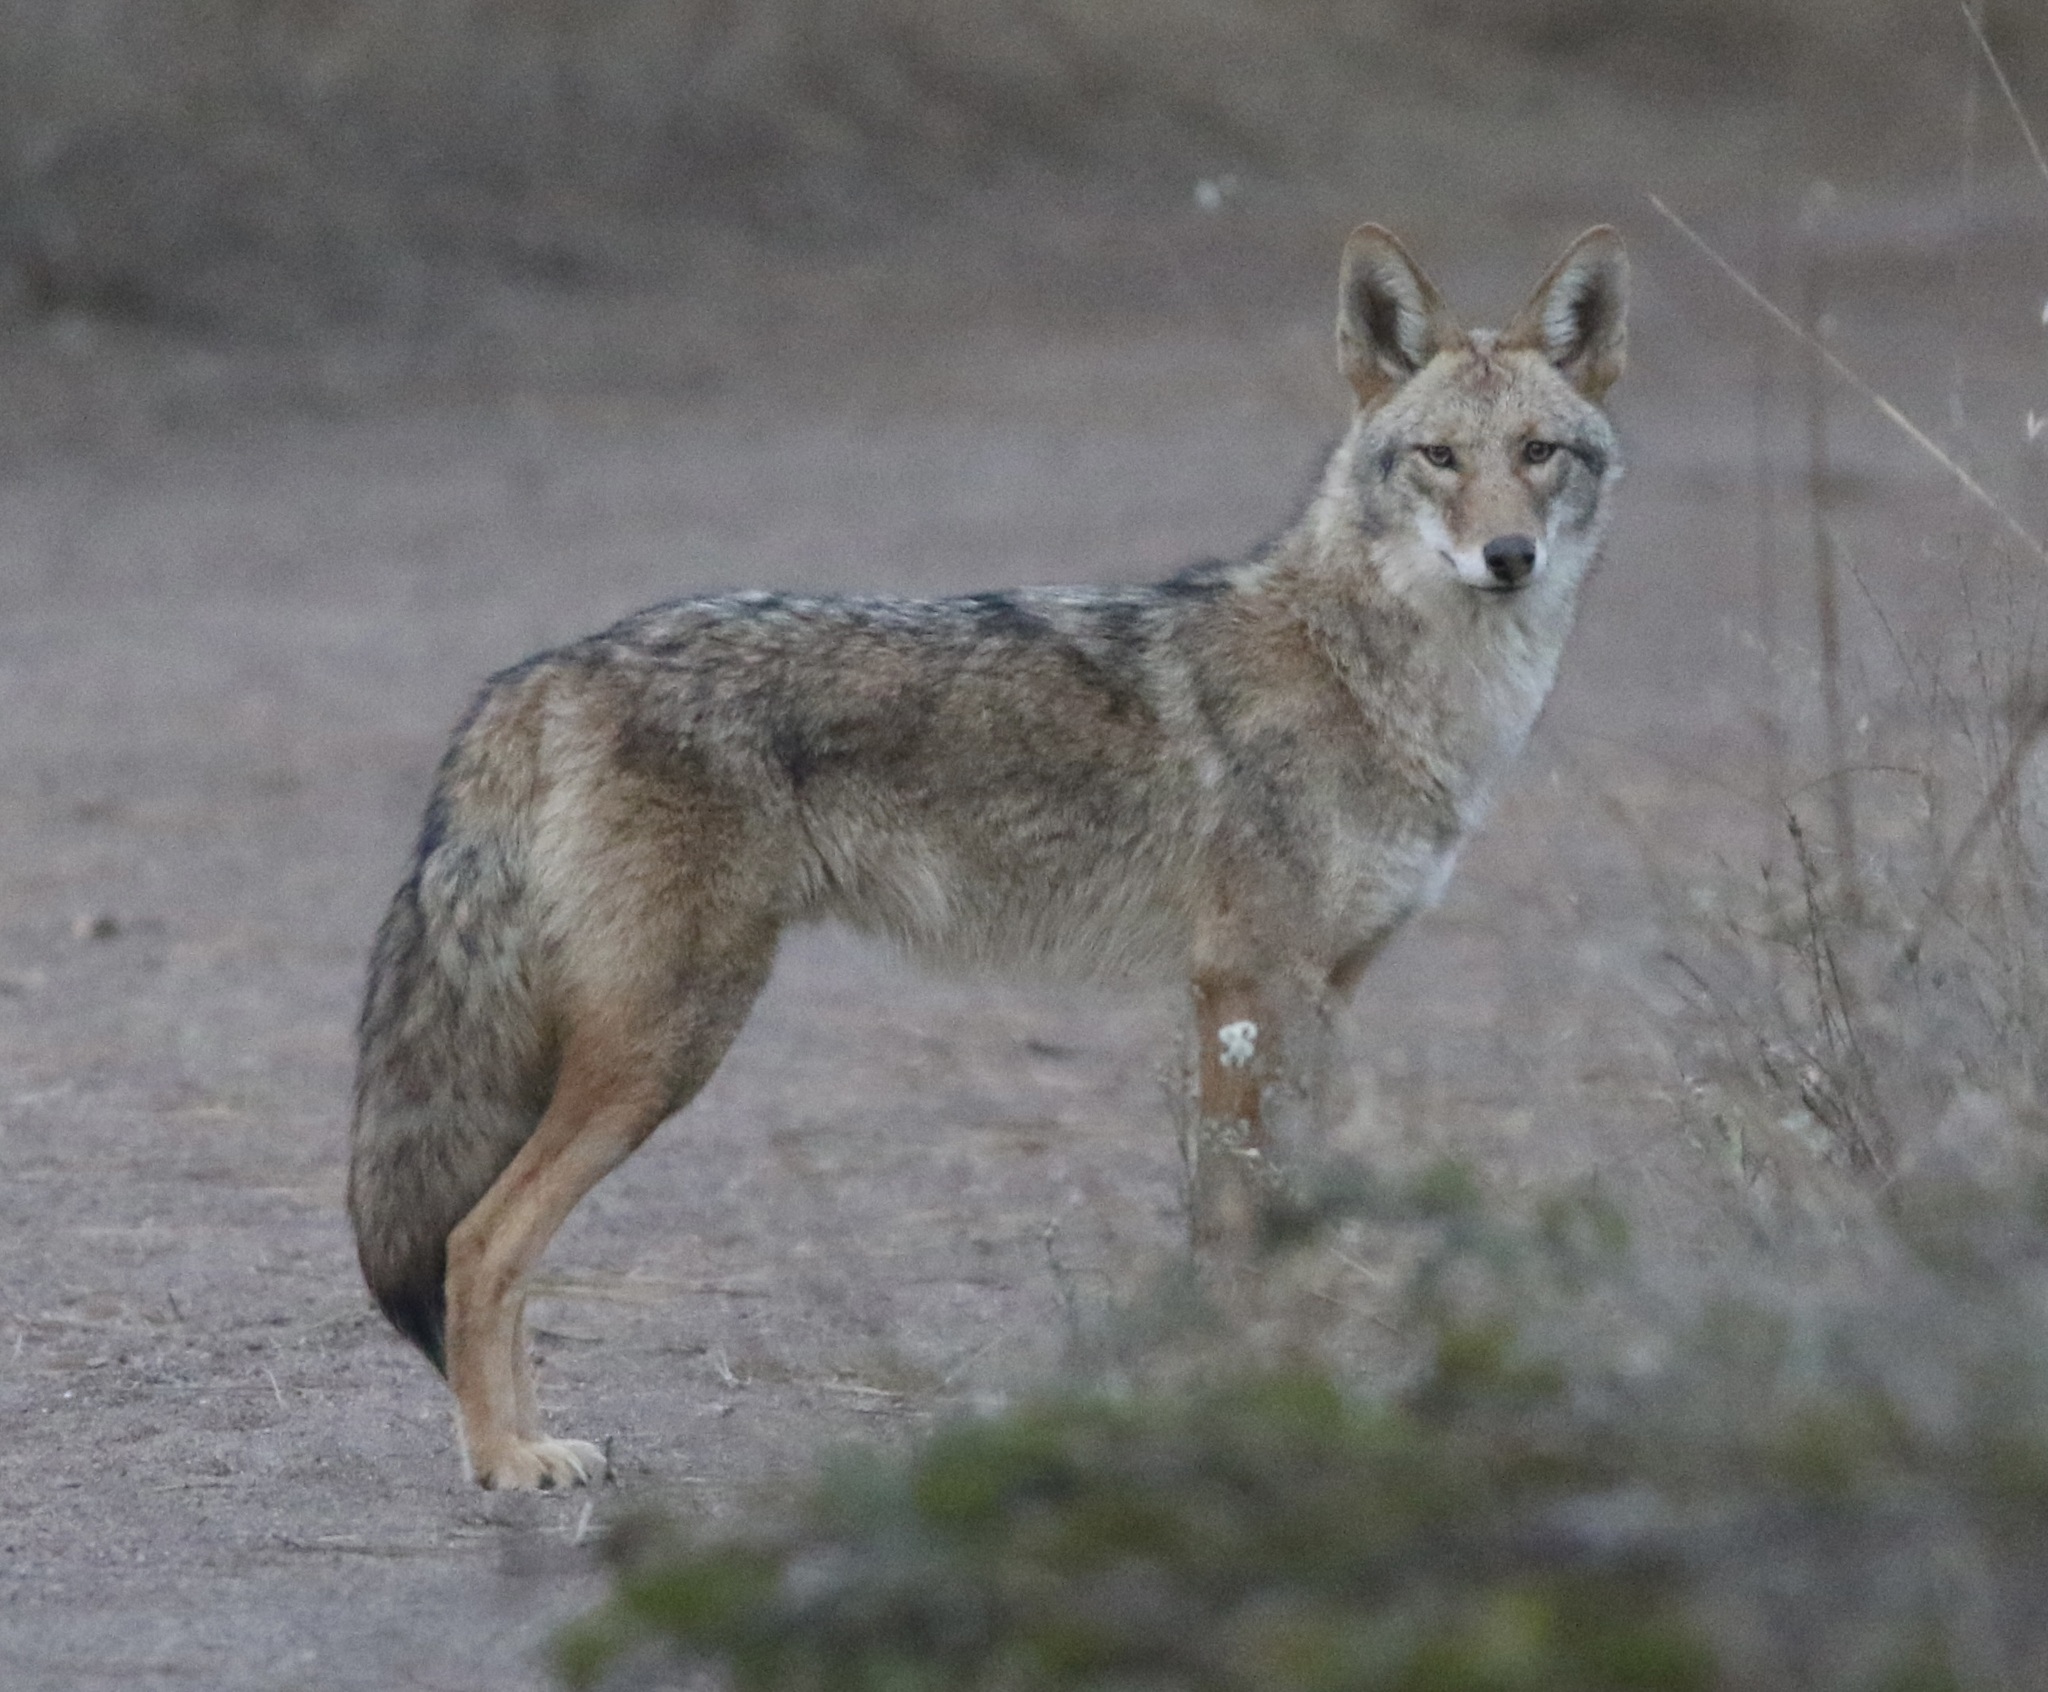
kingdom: Animalia
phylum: Chordata
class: Mammalia
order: Carnivora
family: Canidae
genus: Canis
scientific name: Canis latrans
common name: Coyote
